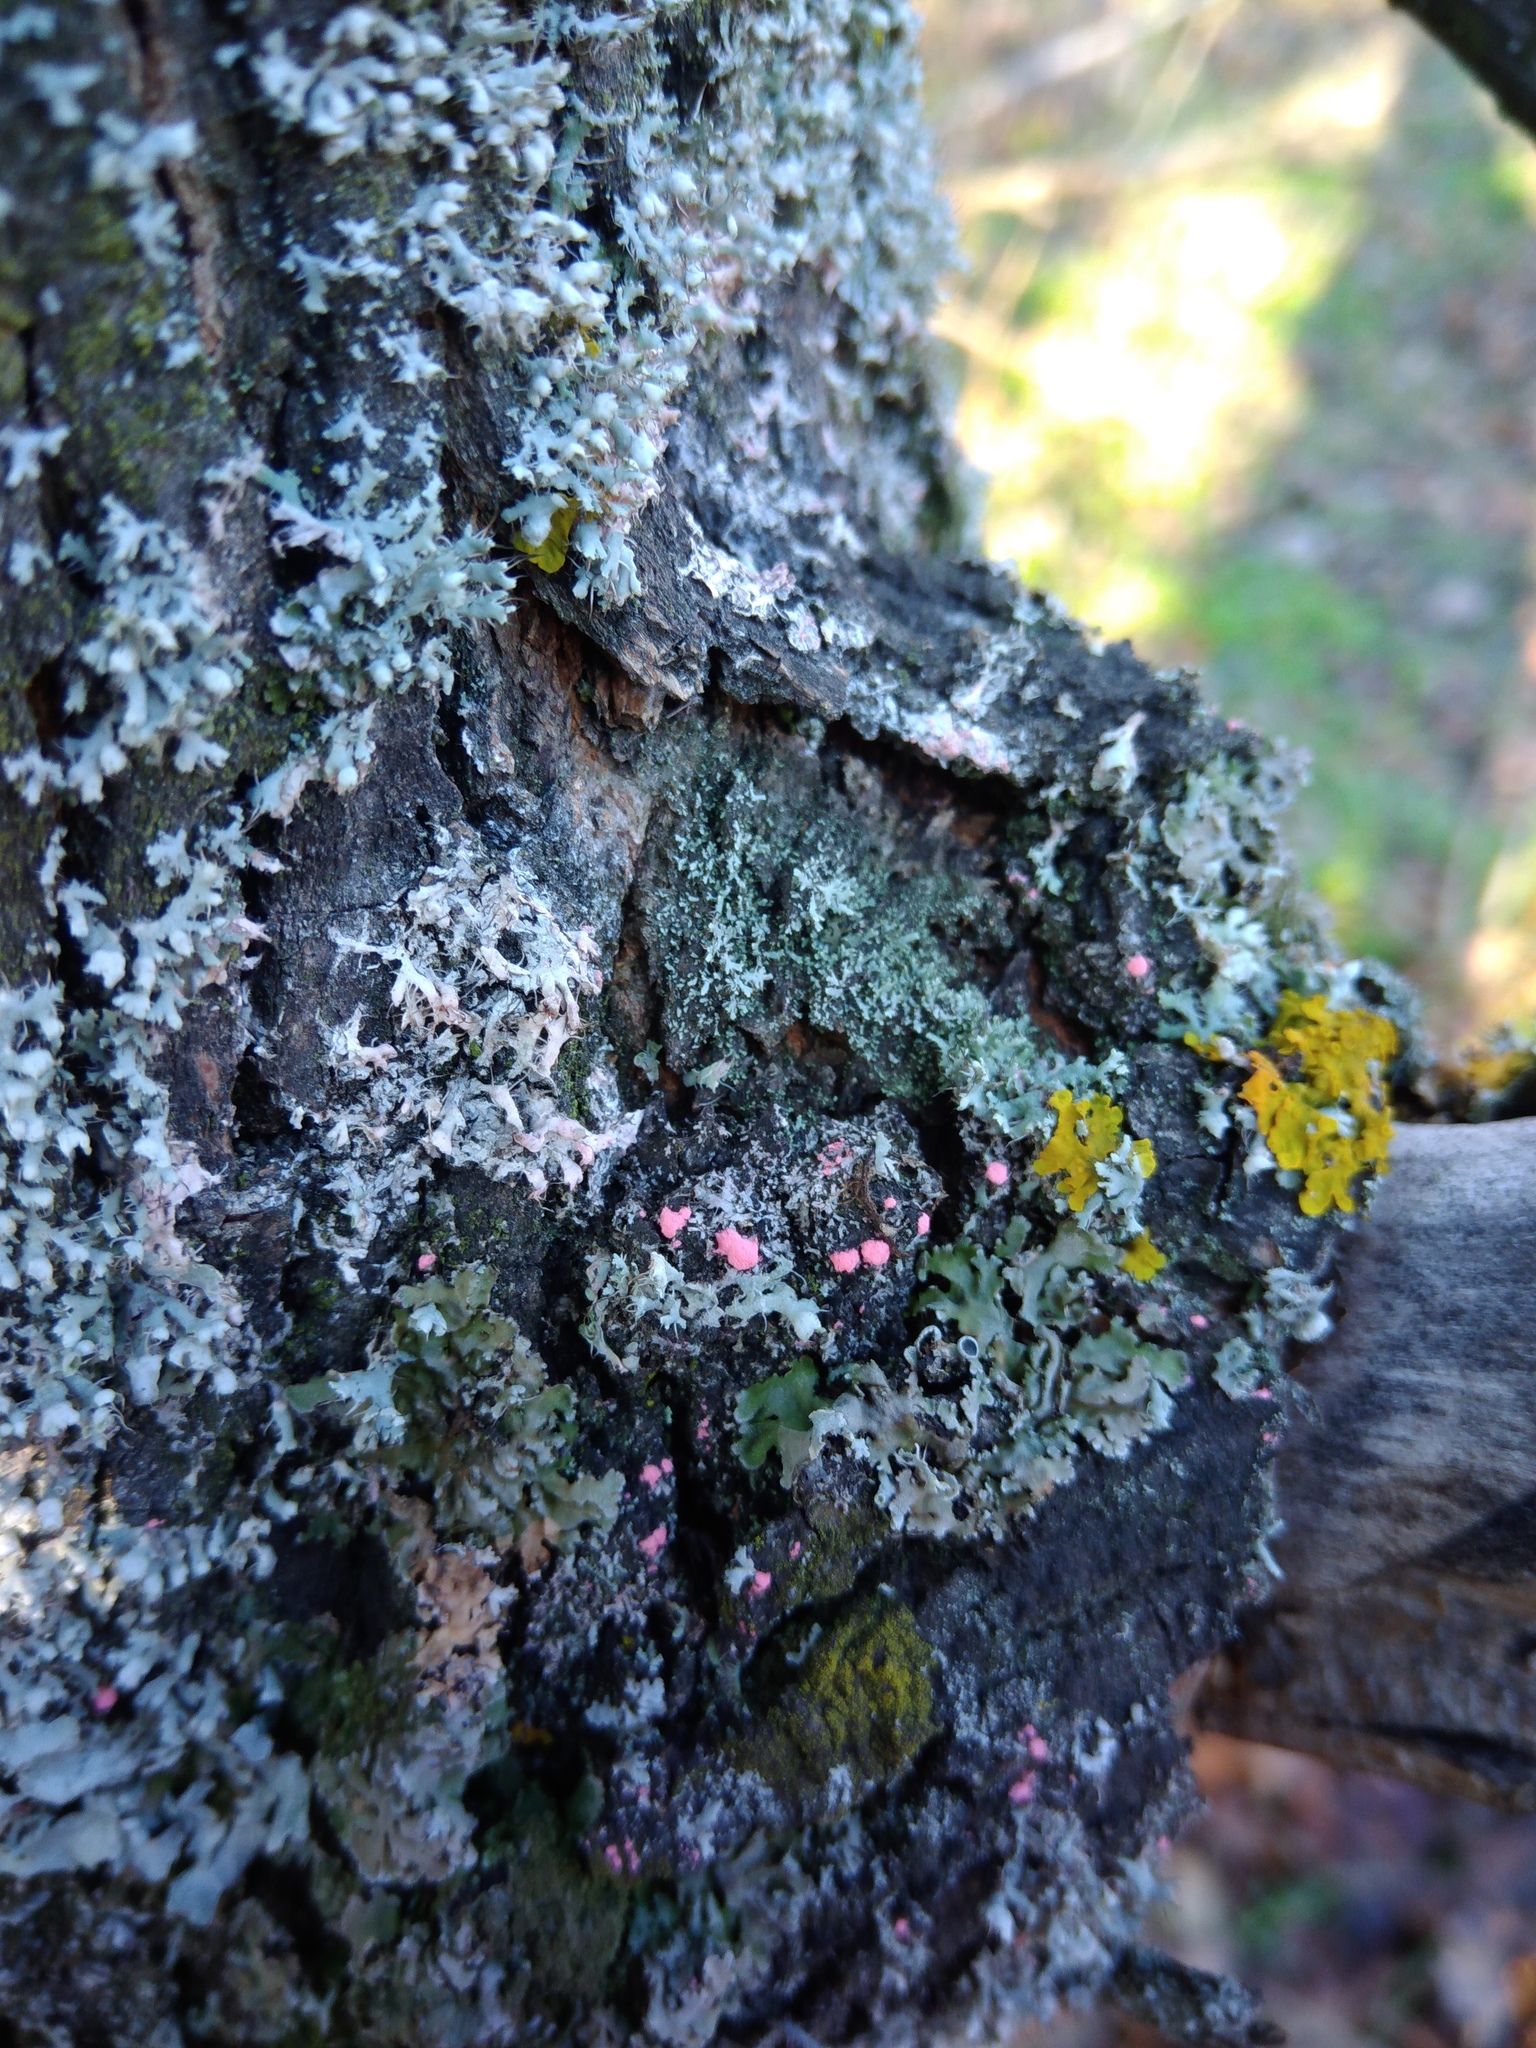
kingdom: Fungi
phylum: Ascomycota
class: Sordariomycetes
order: Hypocreales
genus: Illosporiopsis
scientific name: Illosporiopsis christiansenii
